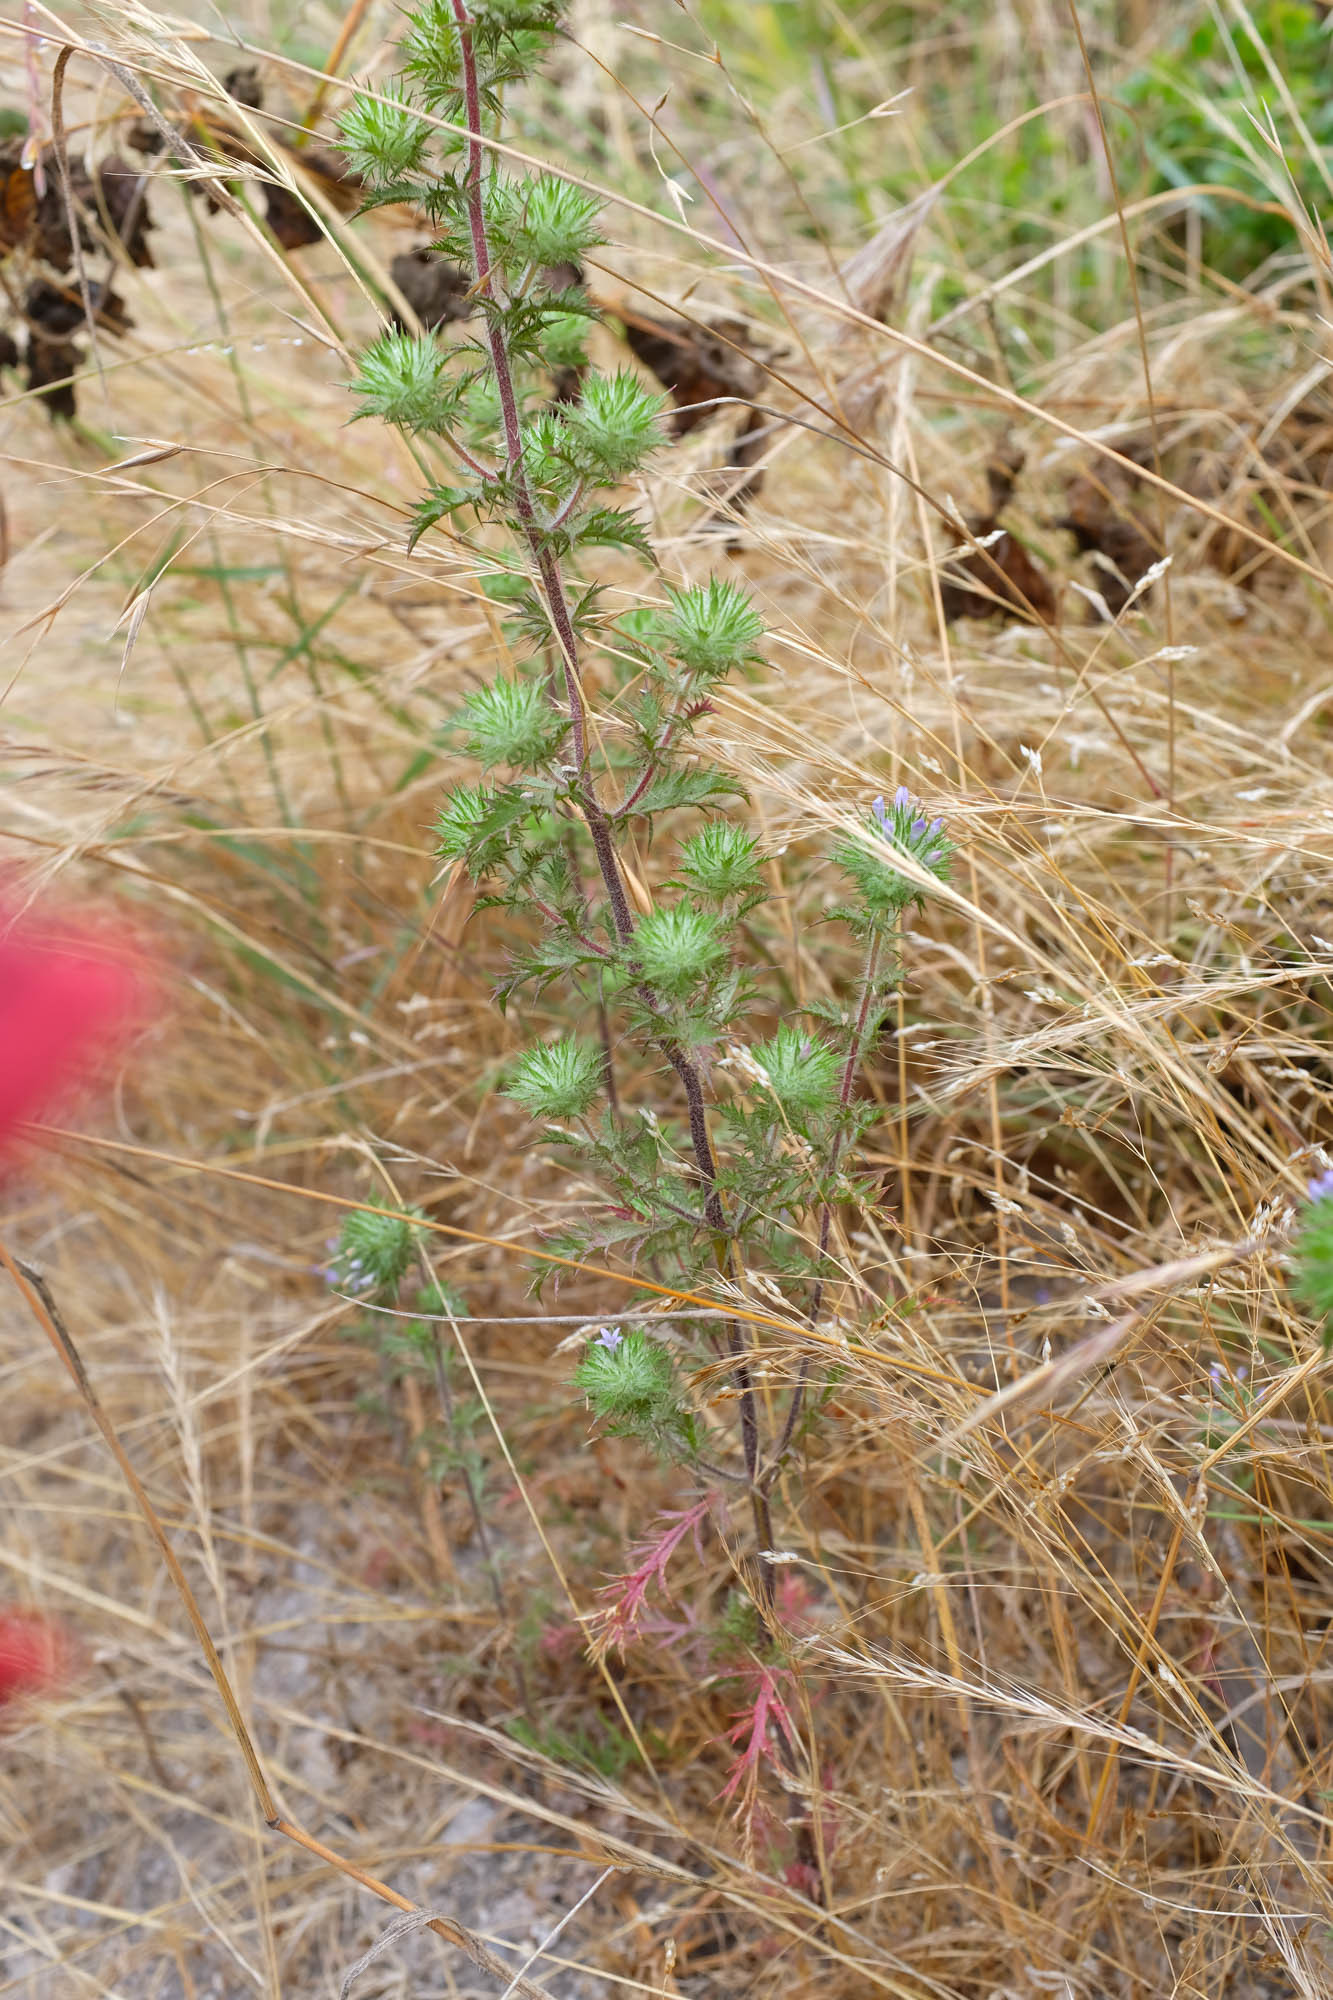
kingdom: Plantae
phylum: Tracheophyta
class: Magnoliopsida
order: Ericales
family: Polemoniaceae
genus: Navarretia
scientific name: Navarretia squarrosa
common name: Skunkweed
